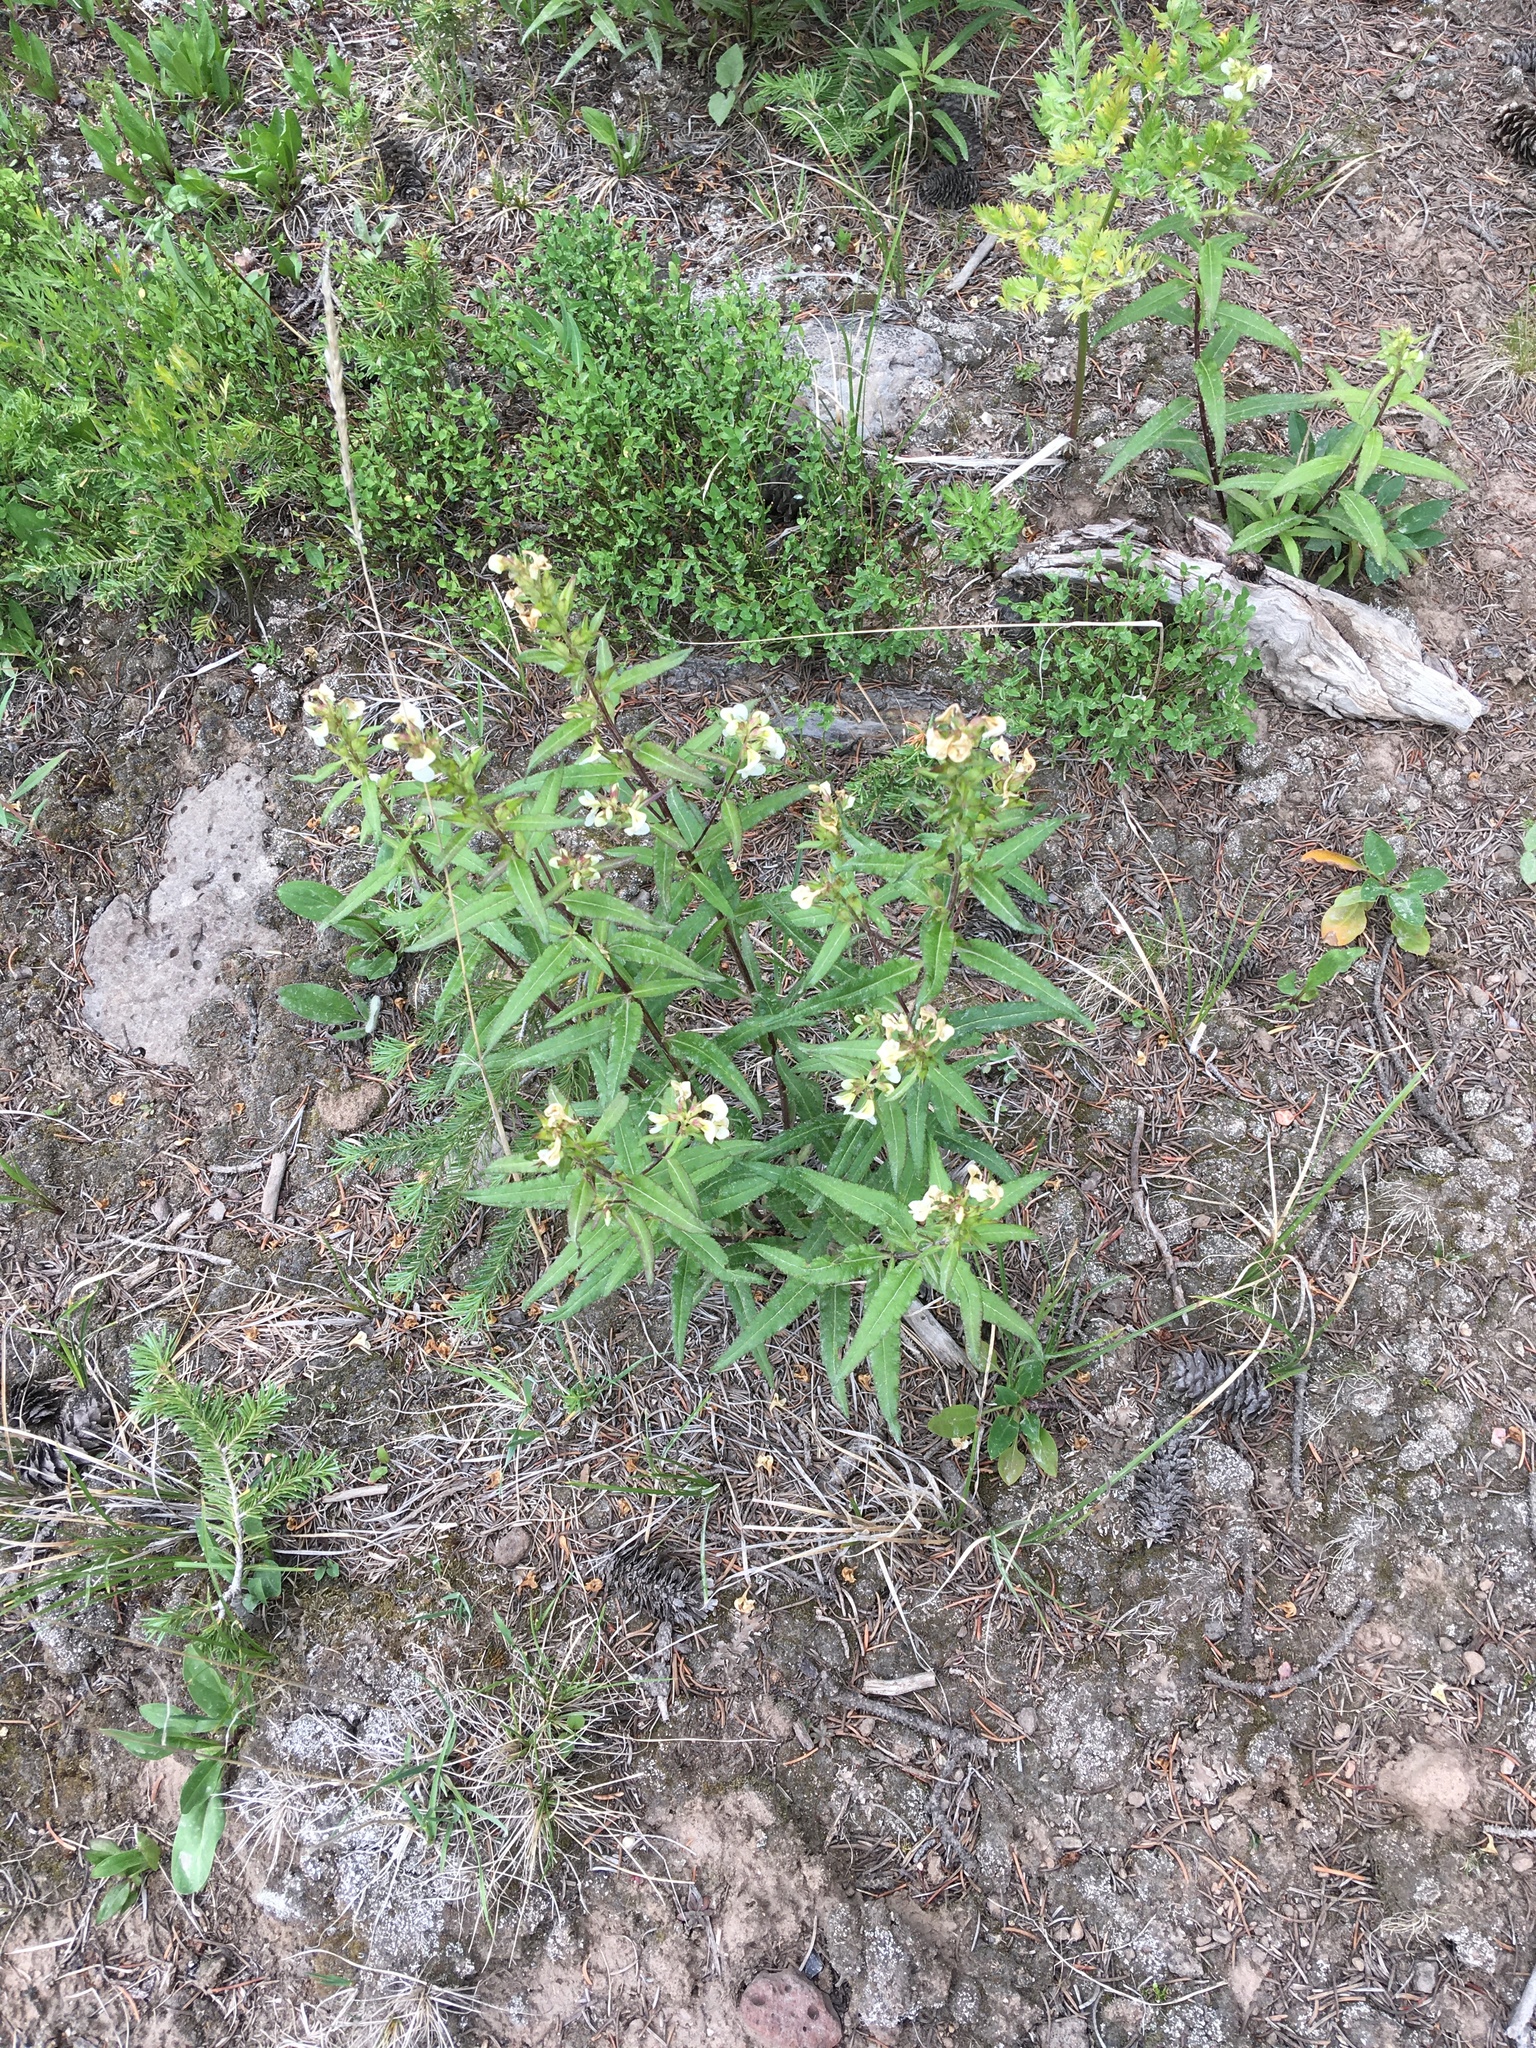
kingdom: Plantae
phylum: Tracheophyta
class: Magnoliopsida
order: Lamiales
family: Orobanchaceae
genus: Pedicularis
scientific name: Pedicularis racemosa
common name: Leafy lousewort
